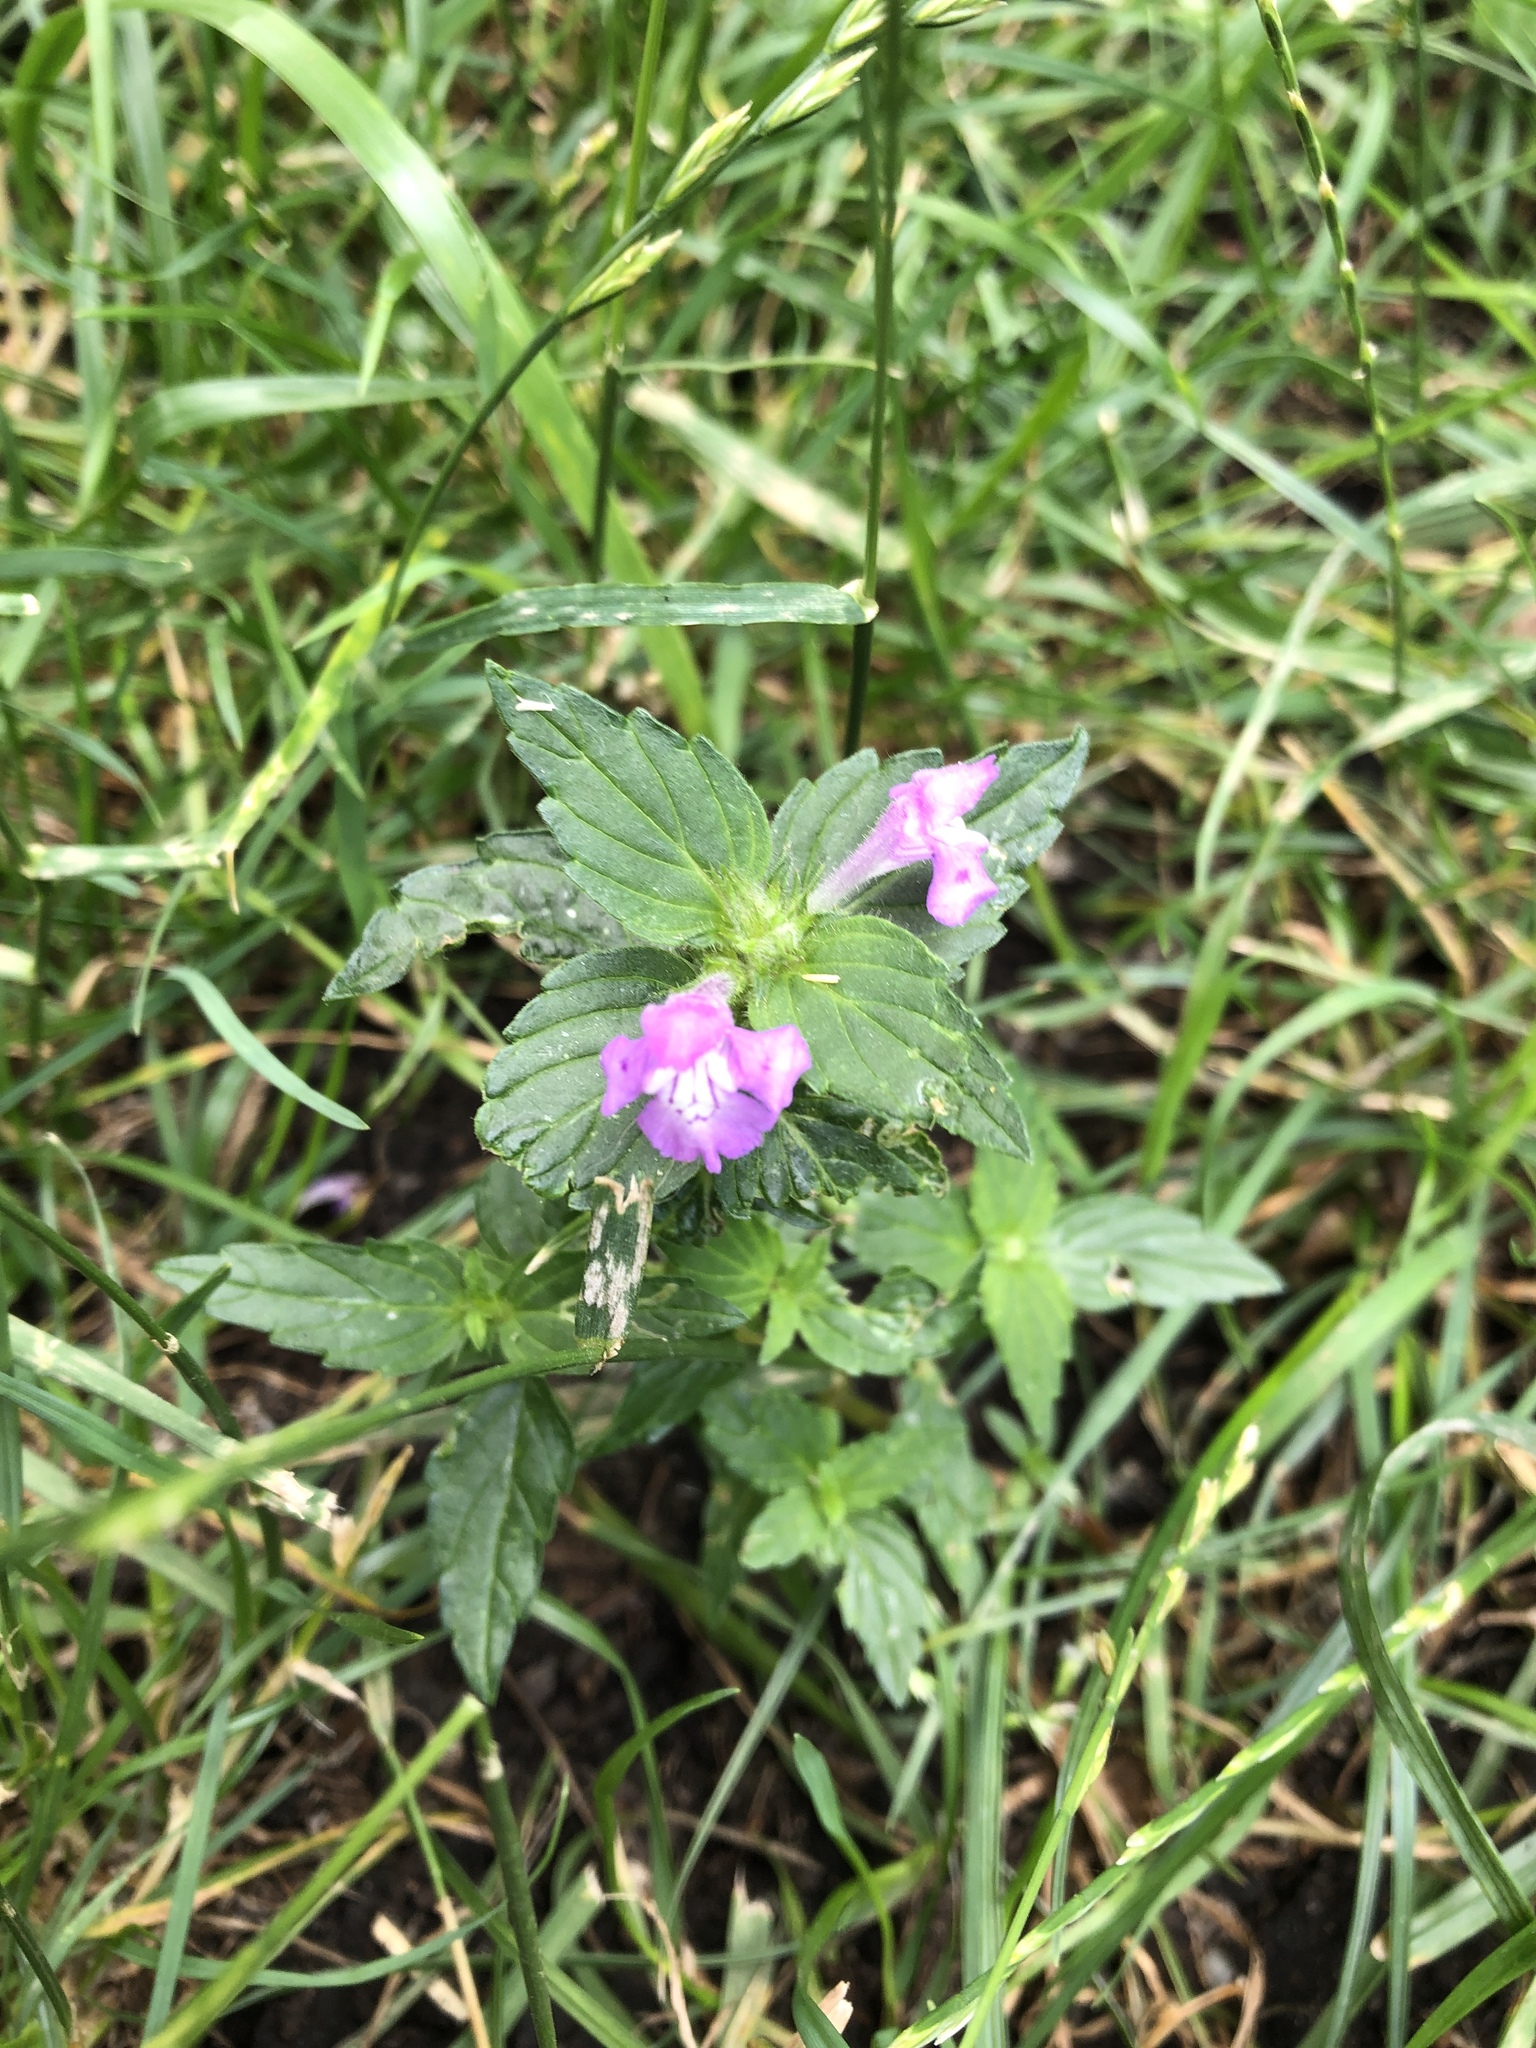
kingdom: Plantae
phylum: Tracheophyta
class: Magnoliopsida
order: Lamiales
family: Lamiaceae
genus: Galeopsis
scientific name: Galeopsis ladanum
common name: Broad-leaved hemp-nettle
